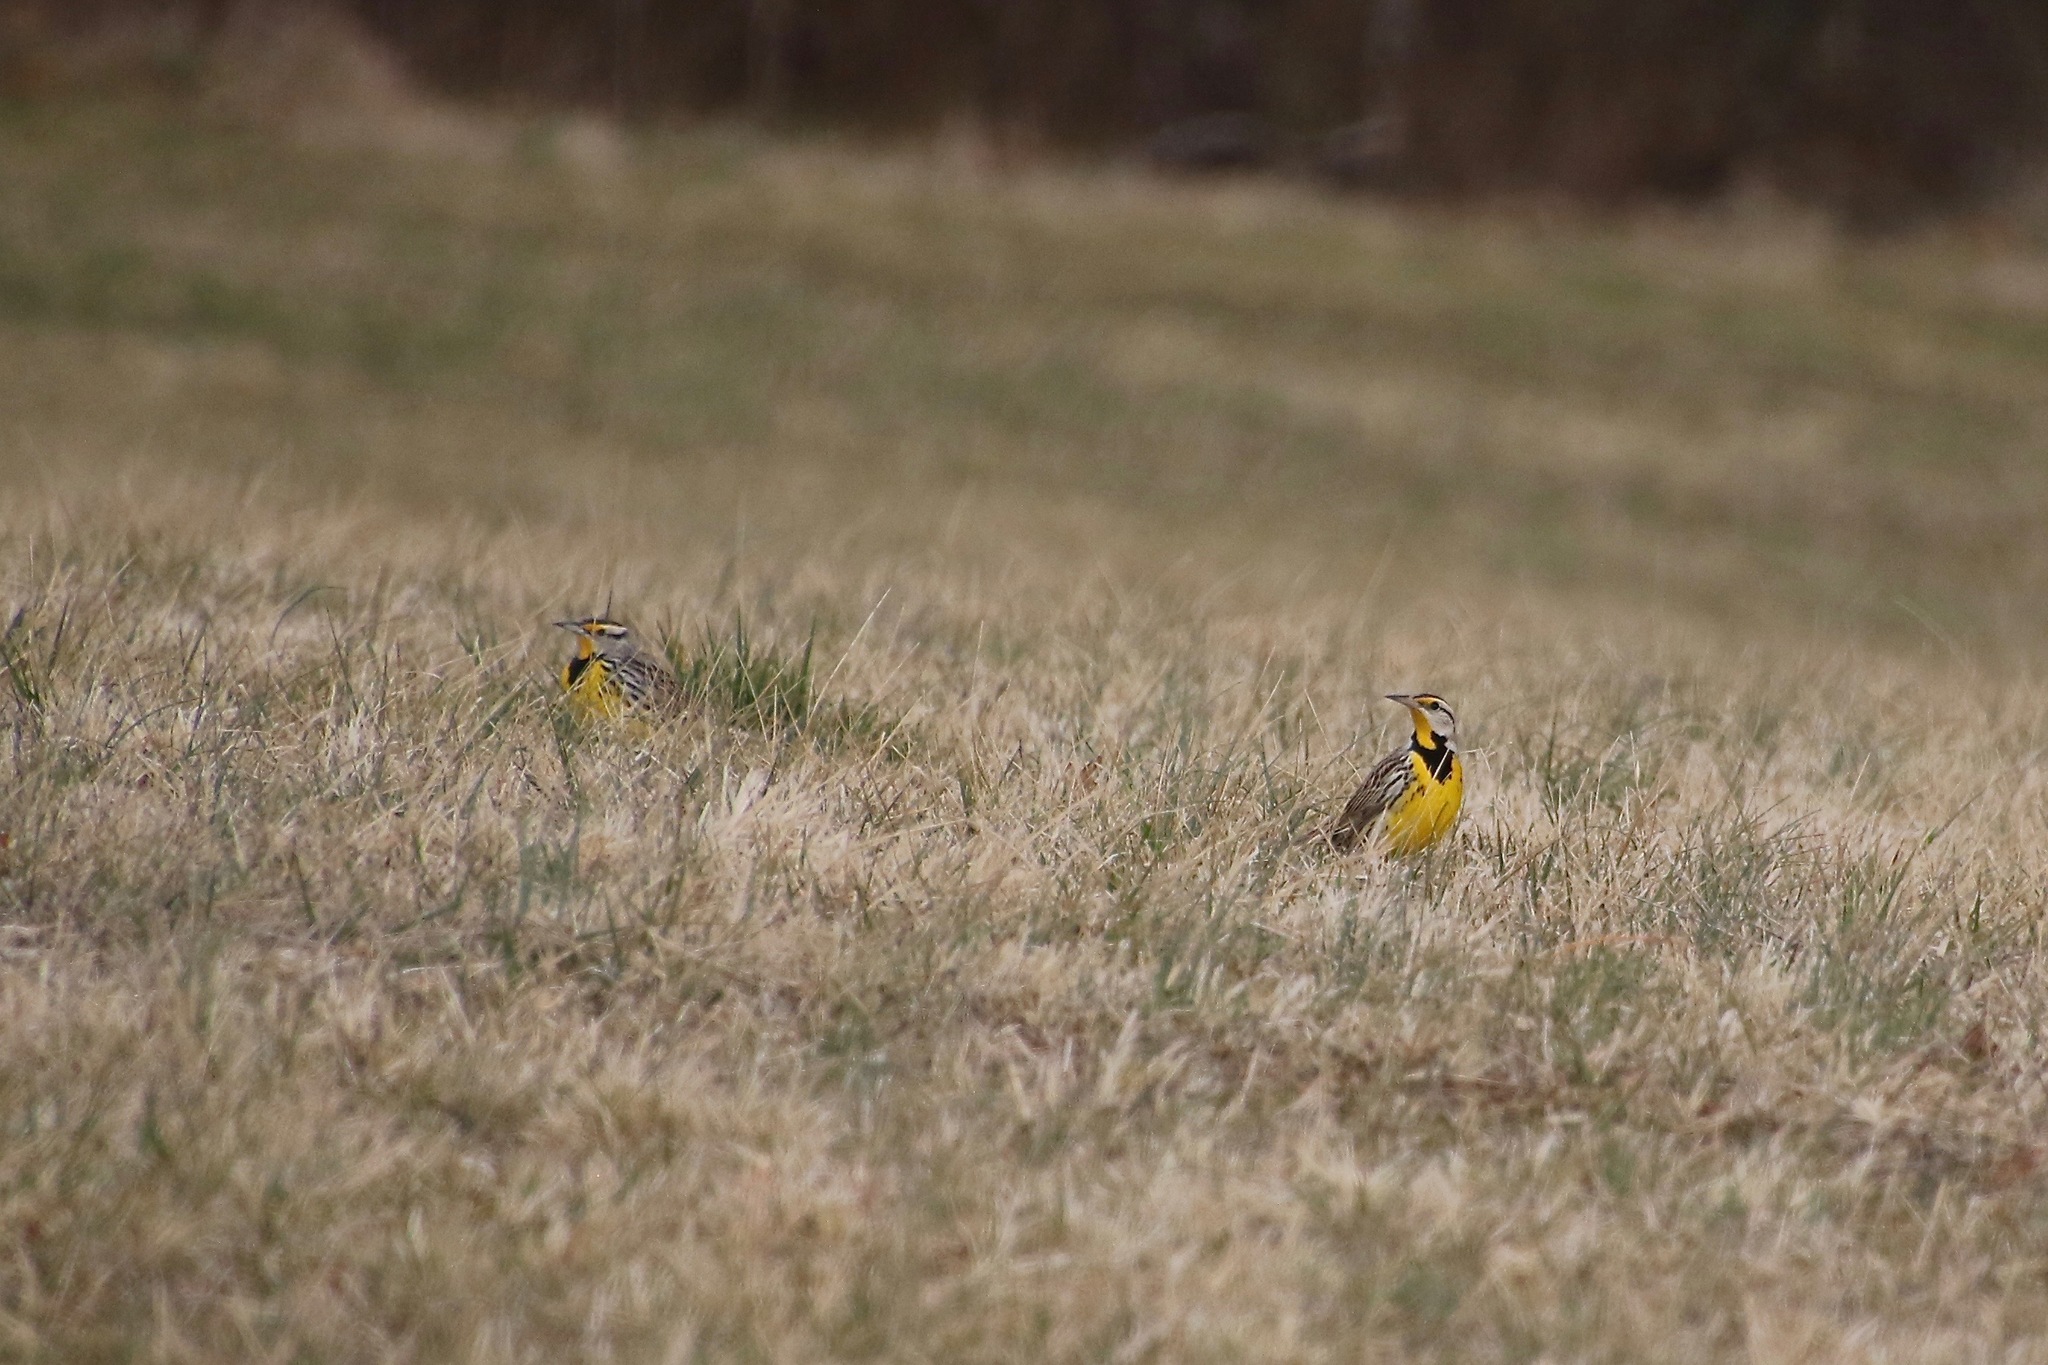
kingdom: Animalia
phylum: Chordata
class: Aves
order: Passeriformes
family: Icteridae
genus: Sturnella
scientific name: Sturnella magna
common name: Eastern meadowlark
